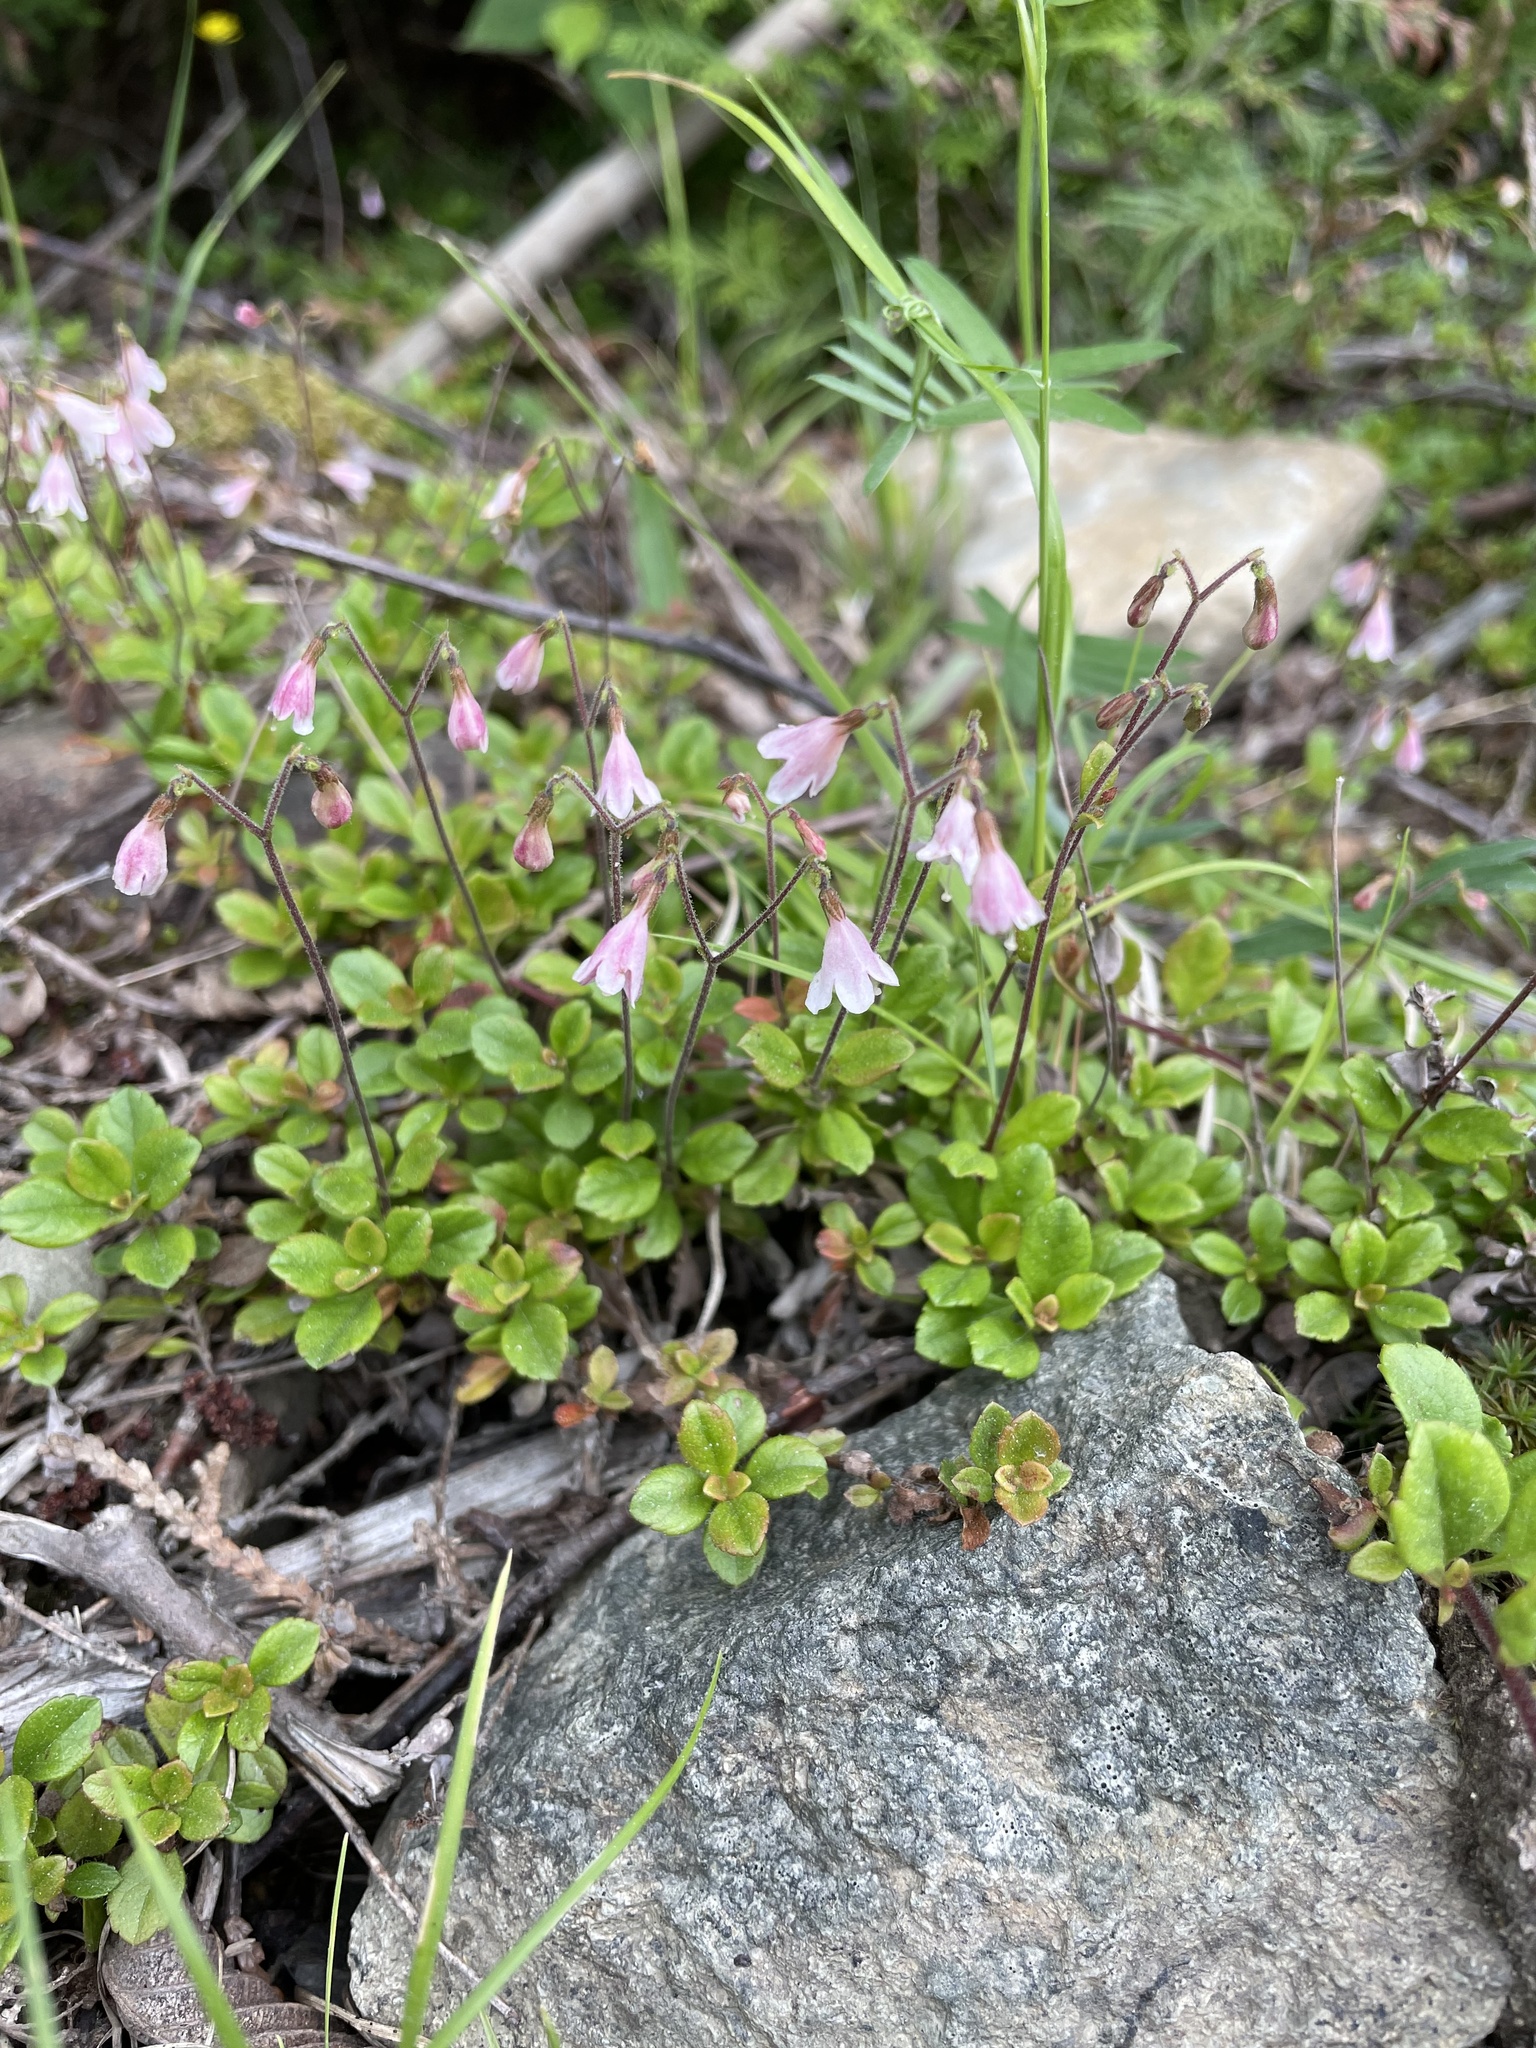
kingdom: Plantae
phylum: Tracheophyta
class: Magnoliopsida
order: Dipsacales
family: Caprifoliaceae
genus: Linnaea
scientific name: Linnaea borealis
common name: Twinflower
